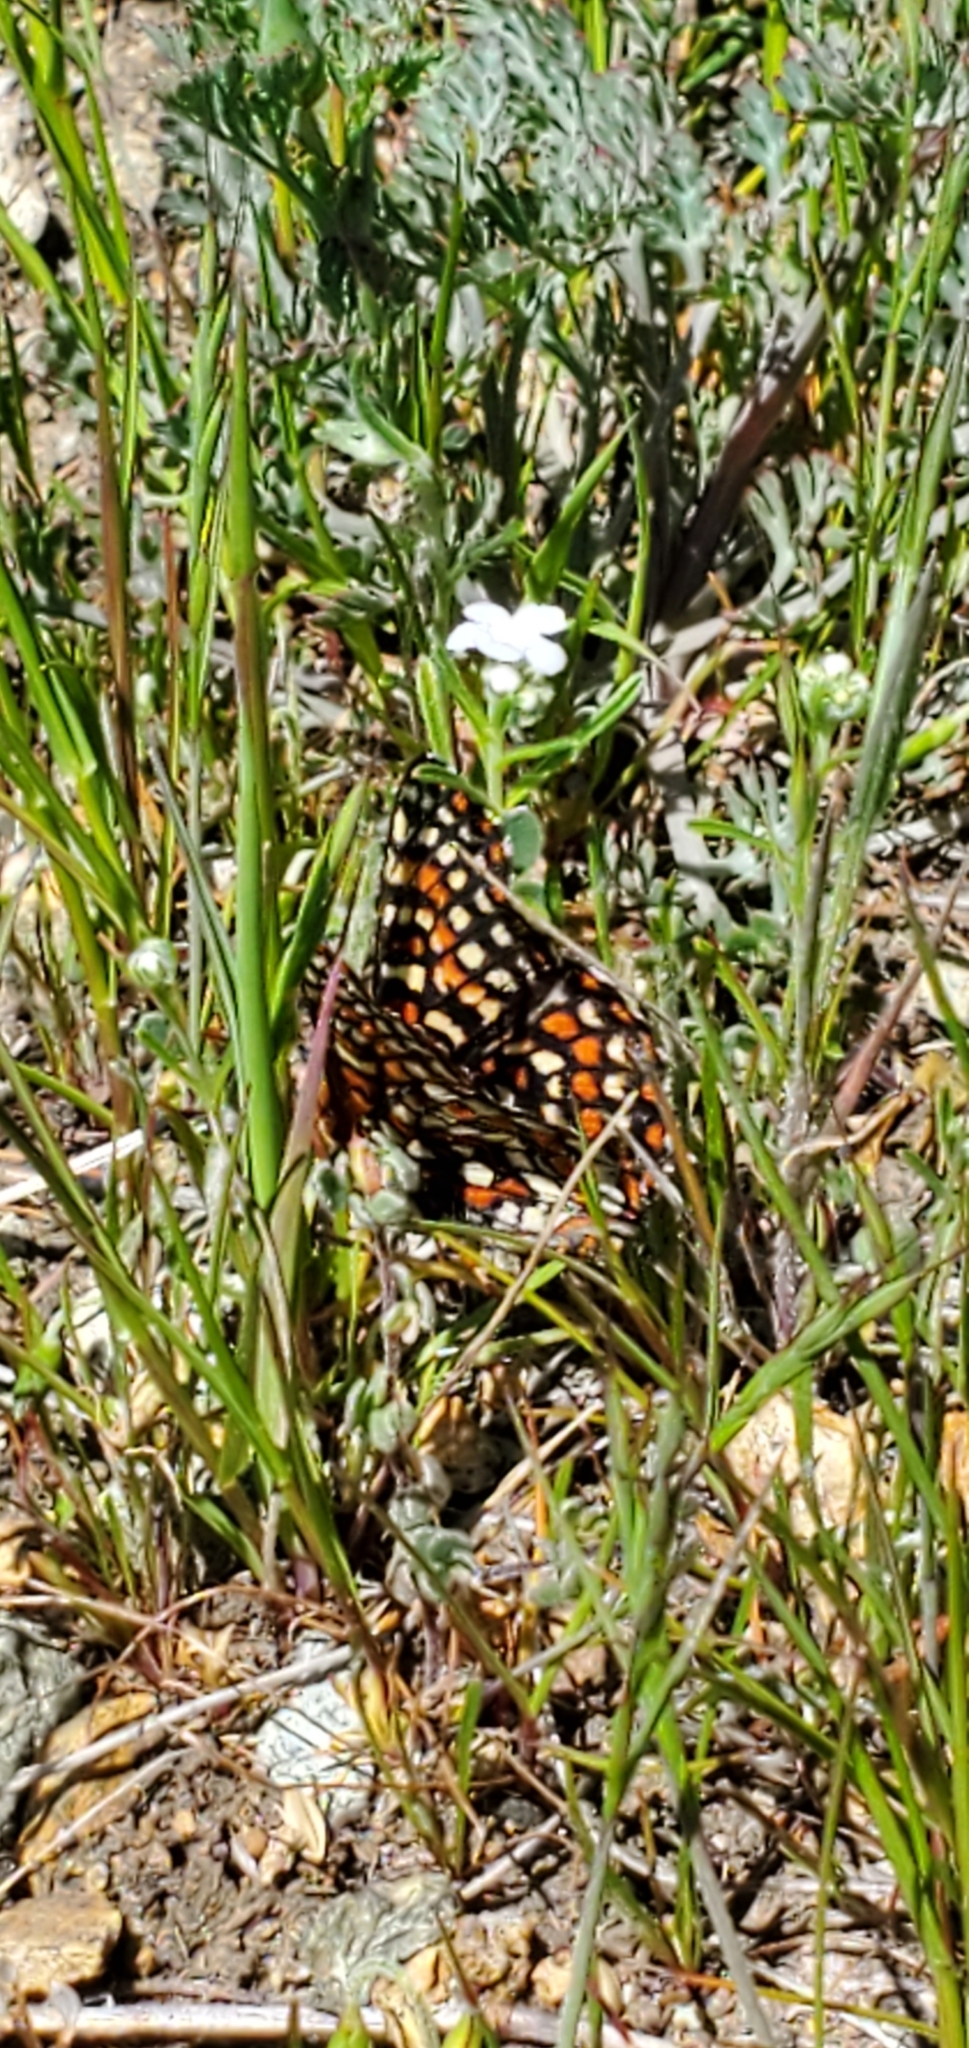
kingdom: Animalia
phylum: Arthropoda
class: Insecta
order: Lepidoptera
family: Nymphalidae
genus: Occidryas
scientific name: Occidryas editha
